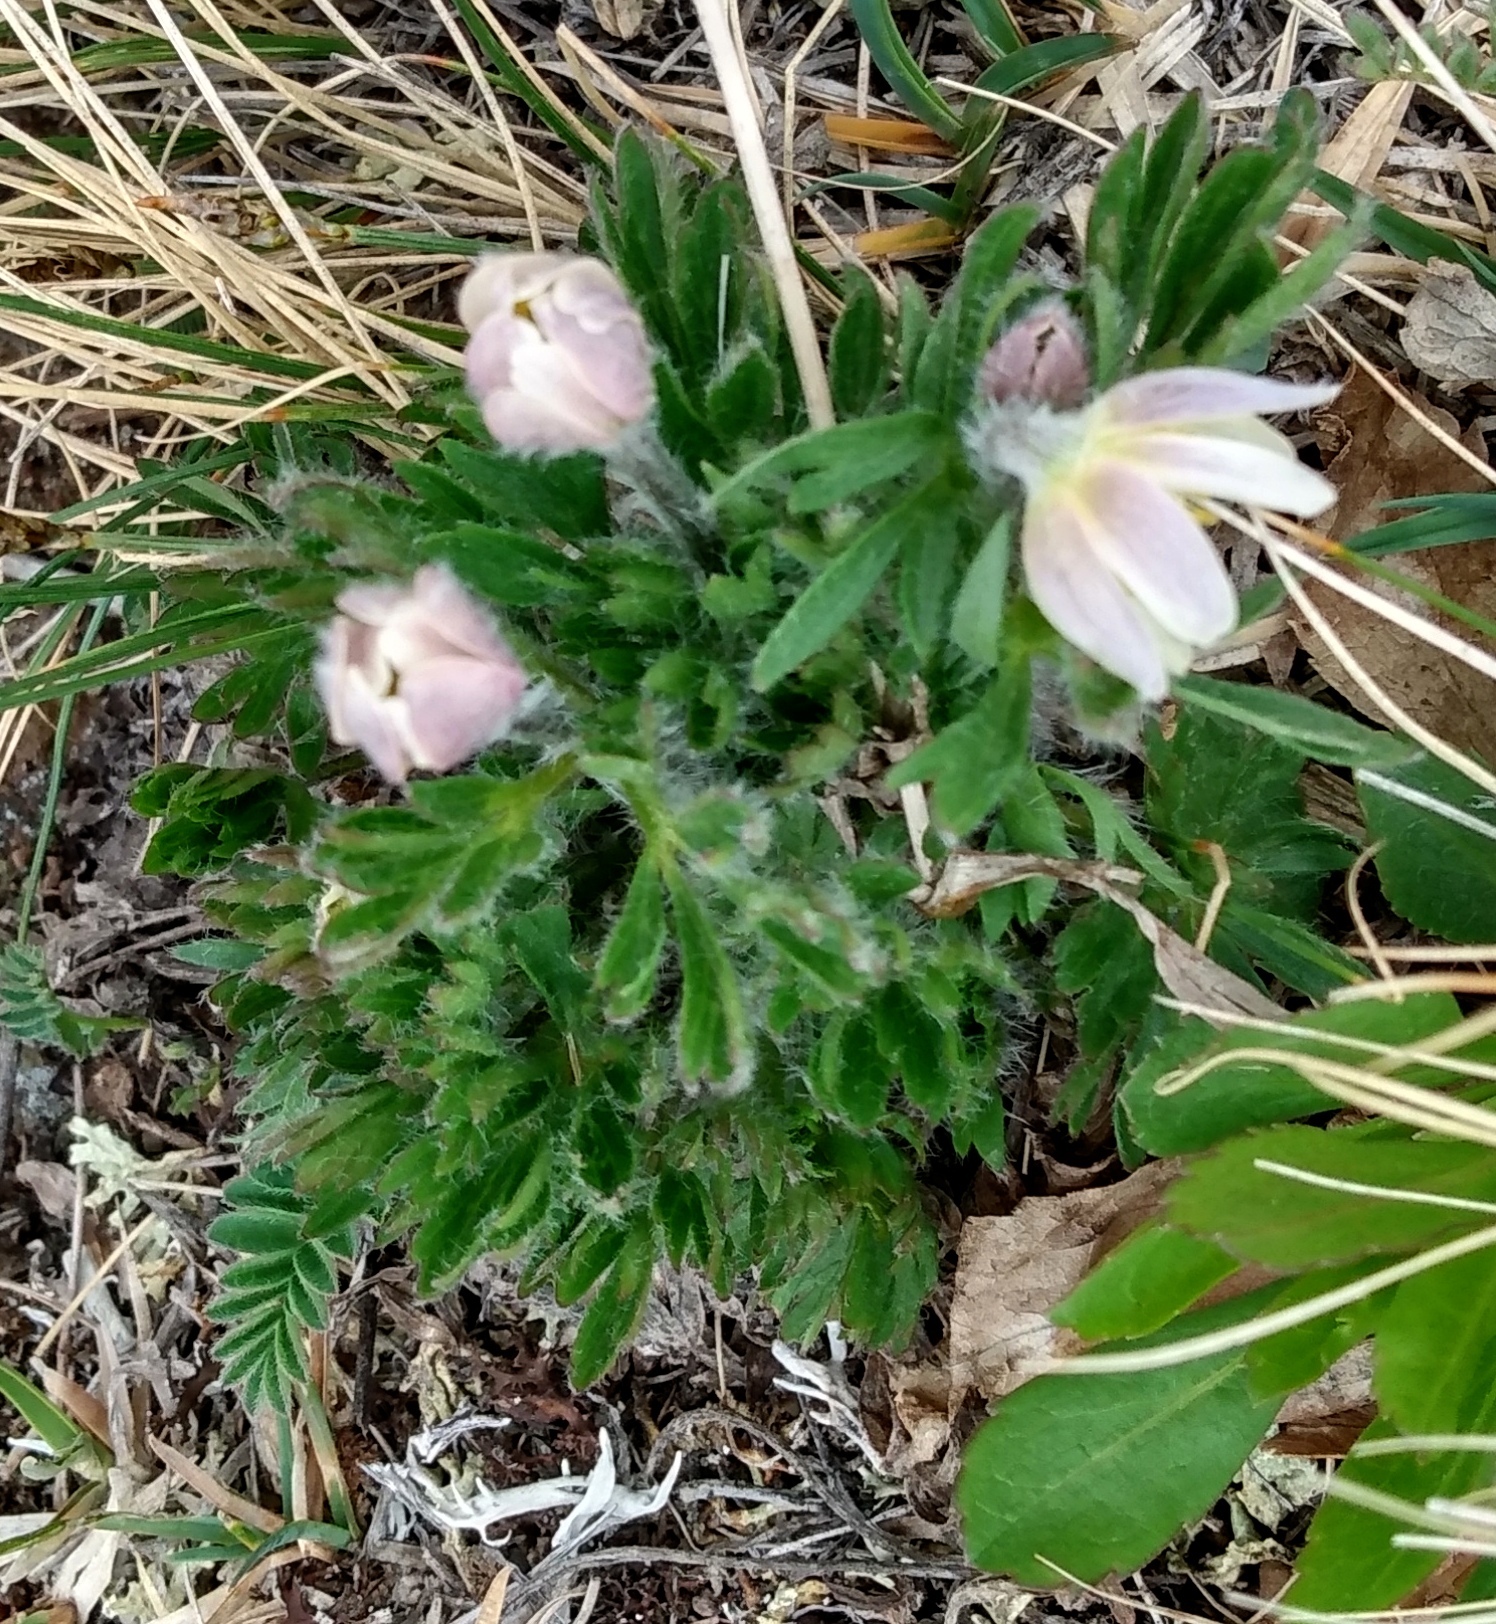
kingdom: Plantae
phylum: Tracheophyta
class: Magnoliopsida
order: Ranunculales
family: Ranunculaceae
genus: Anemone
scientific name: Anemone multifida
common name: Bird's-foot anemone
